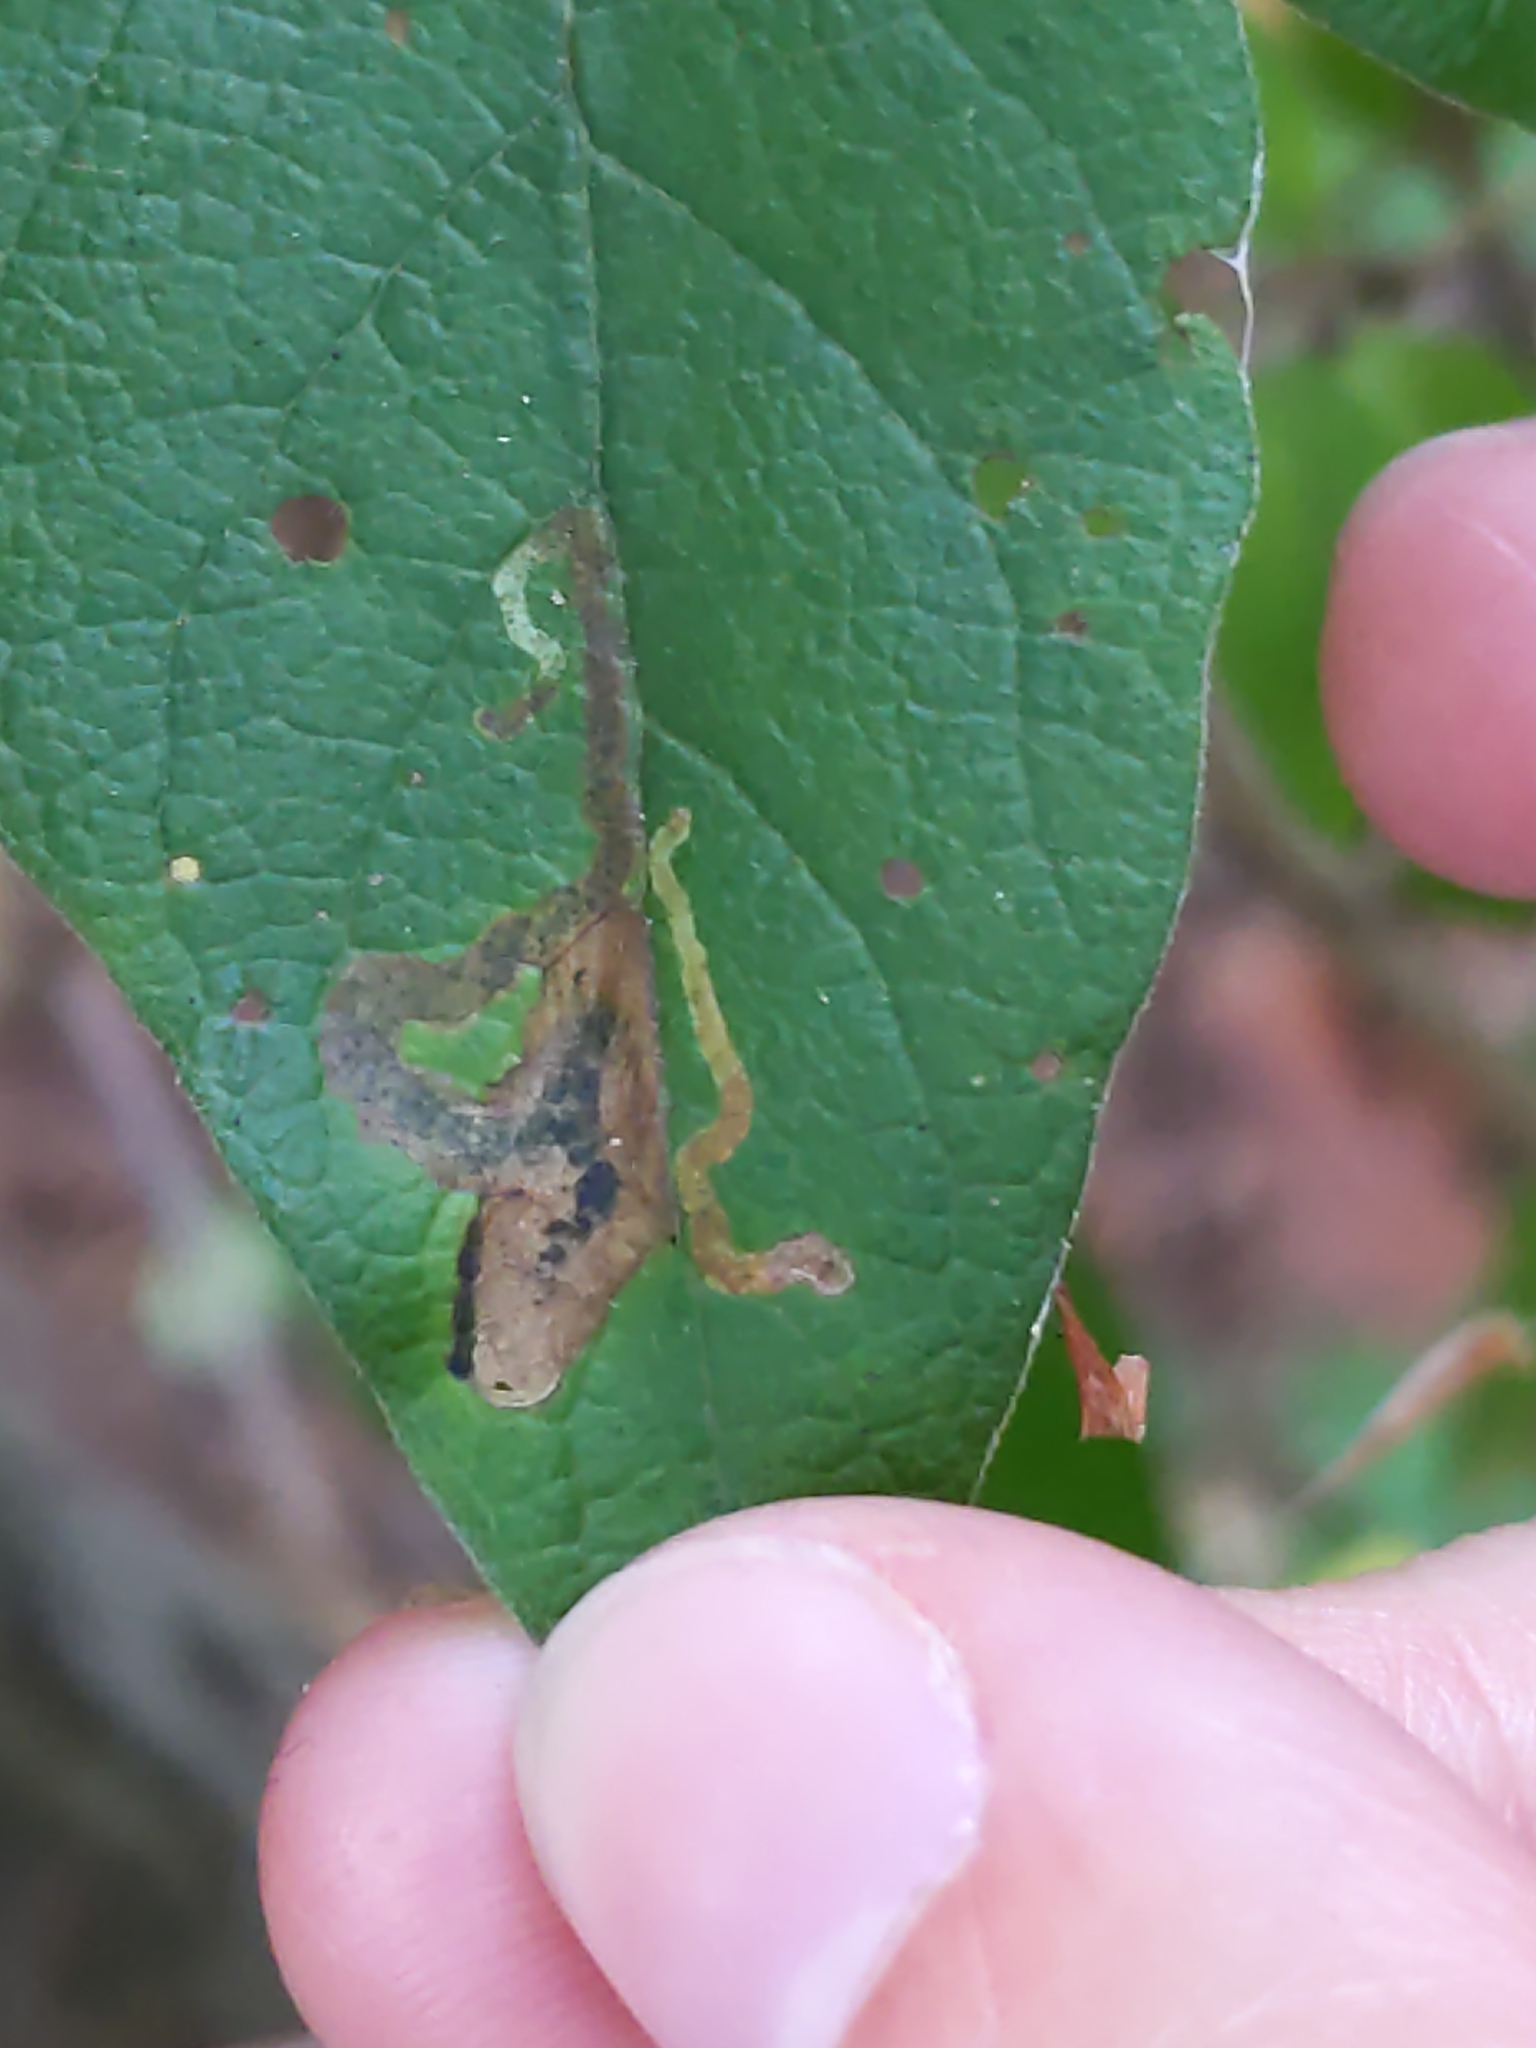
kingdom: Animalia
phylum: Arthropoda
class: Insecta
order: Diptera
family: Agromyzidae
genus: Aulagromyza
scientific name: Aulagromyza
